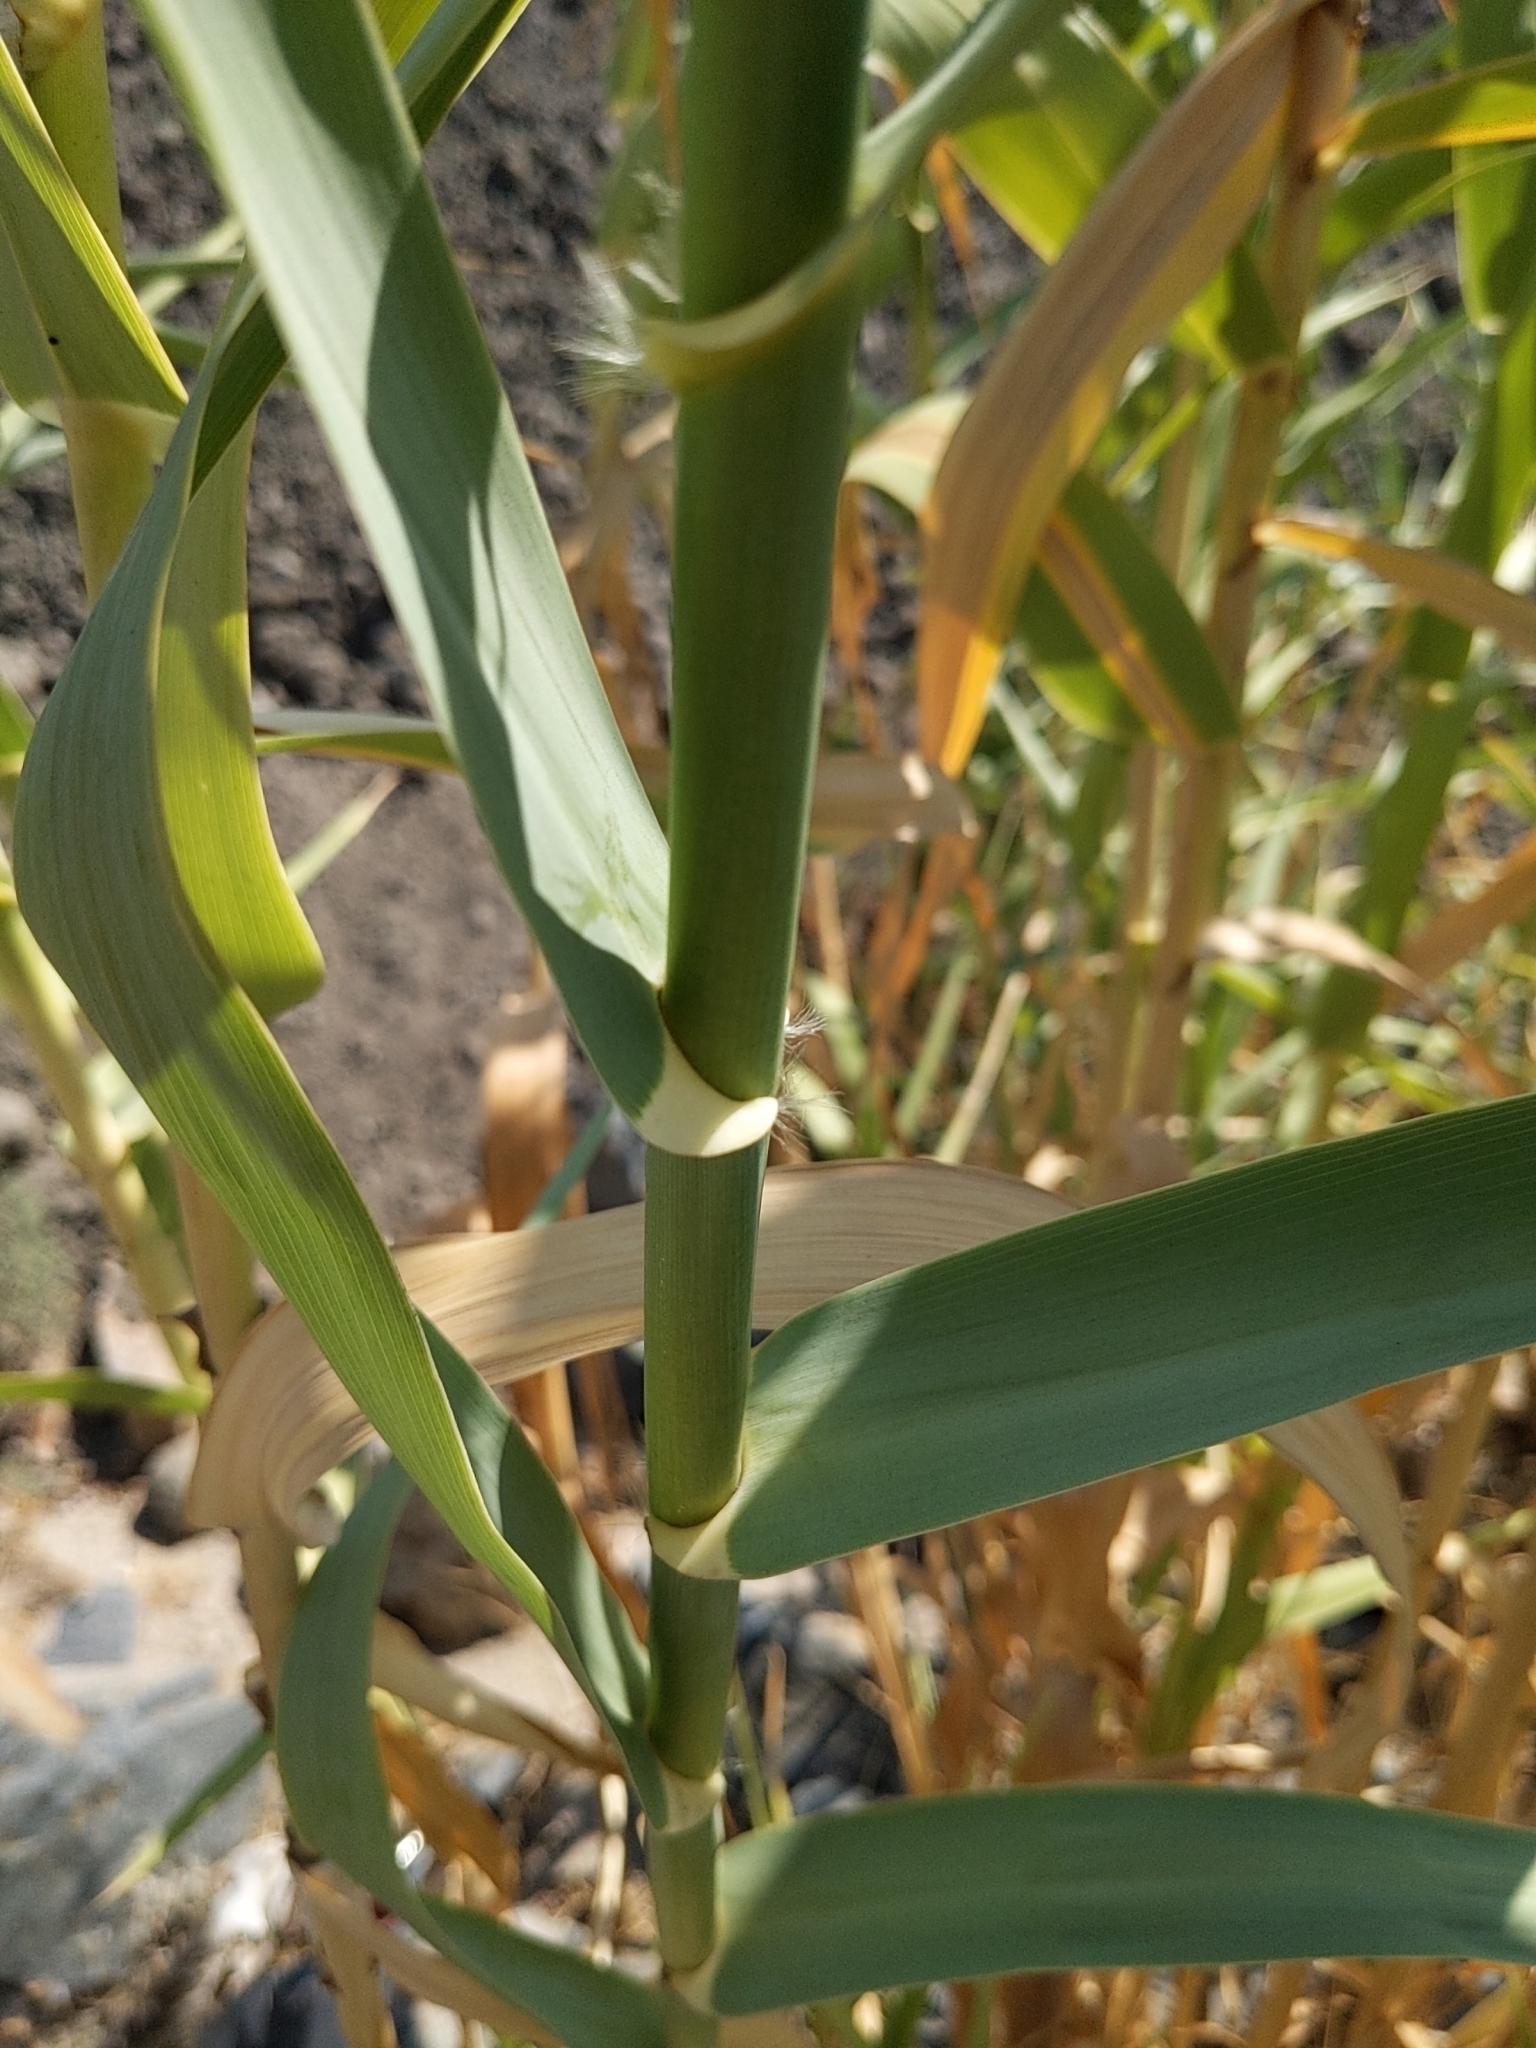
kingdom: Plantae
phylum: Tracheophyta
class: Liliopsida
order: Poales
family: Poaceae
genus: Arundo
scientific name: Arundo donax
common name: Giant reed
